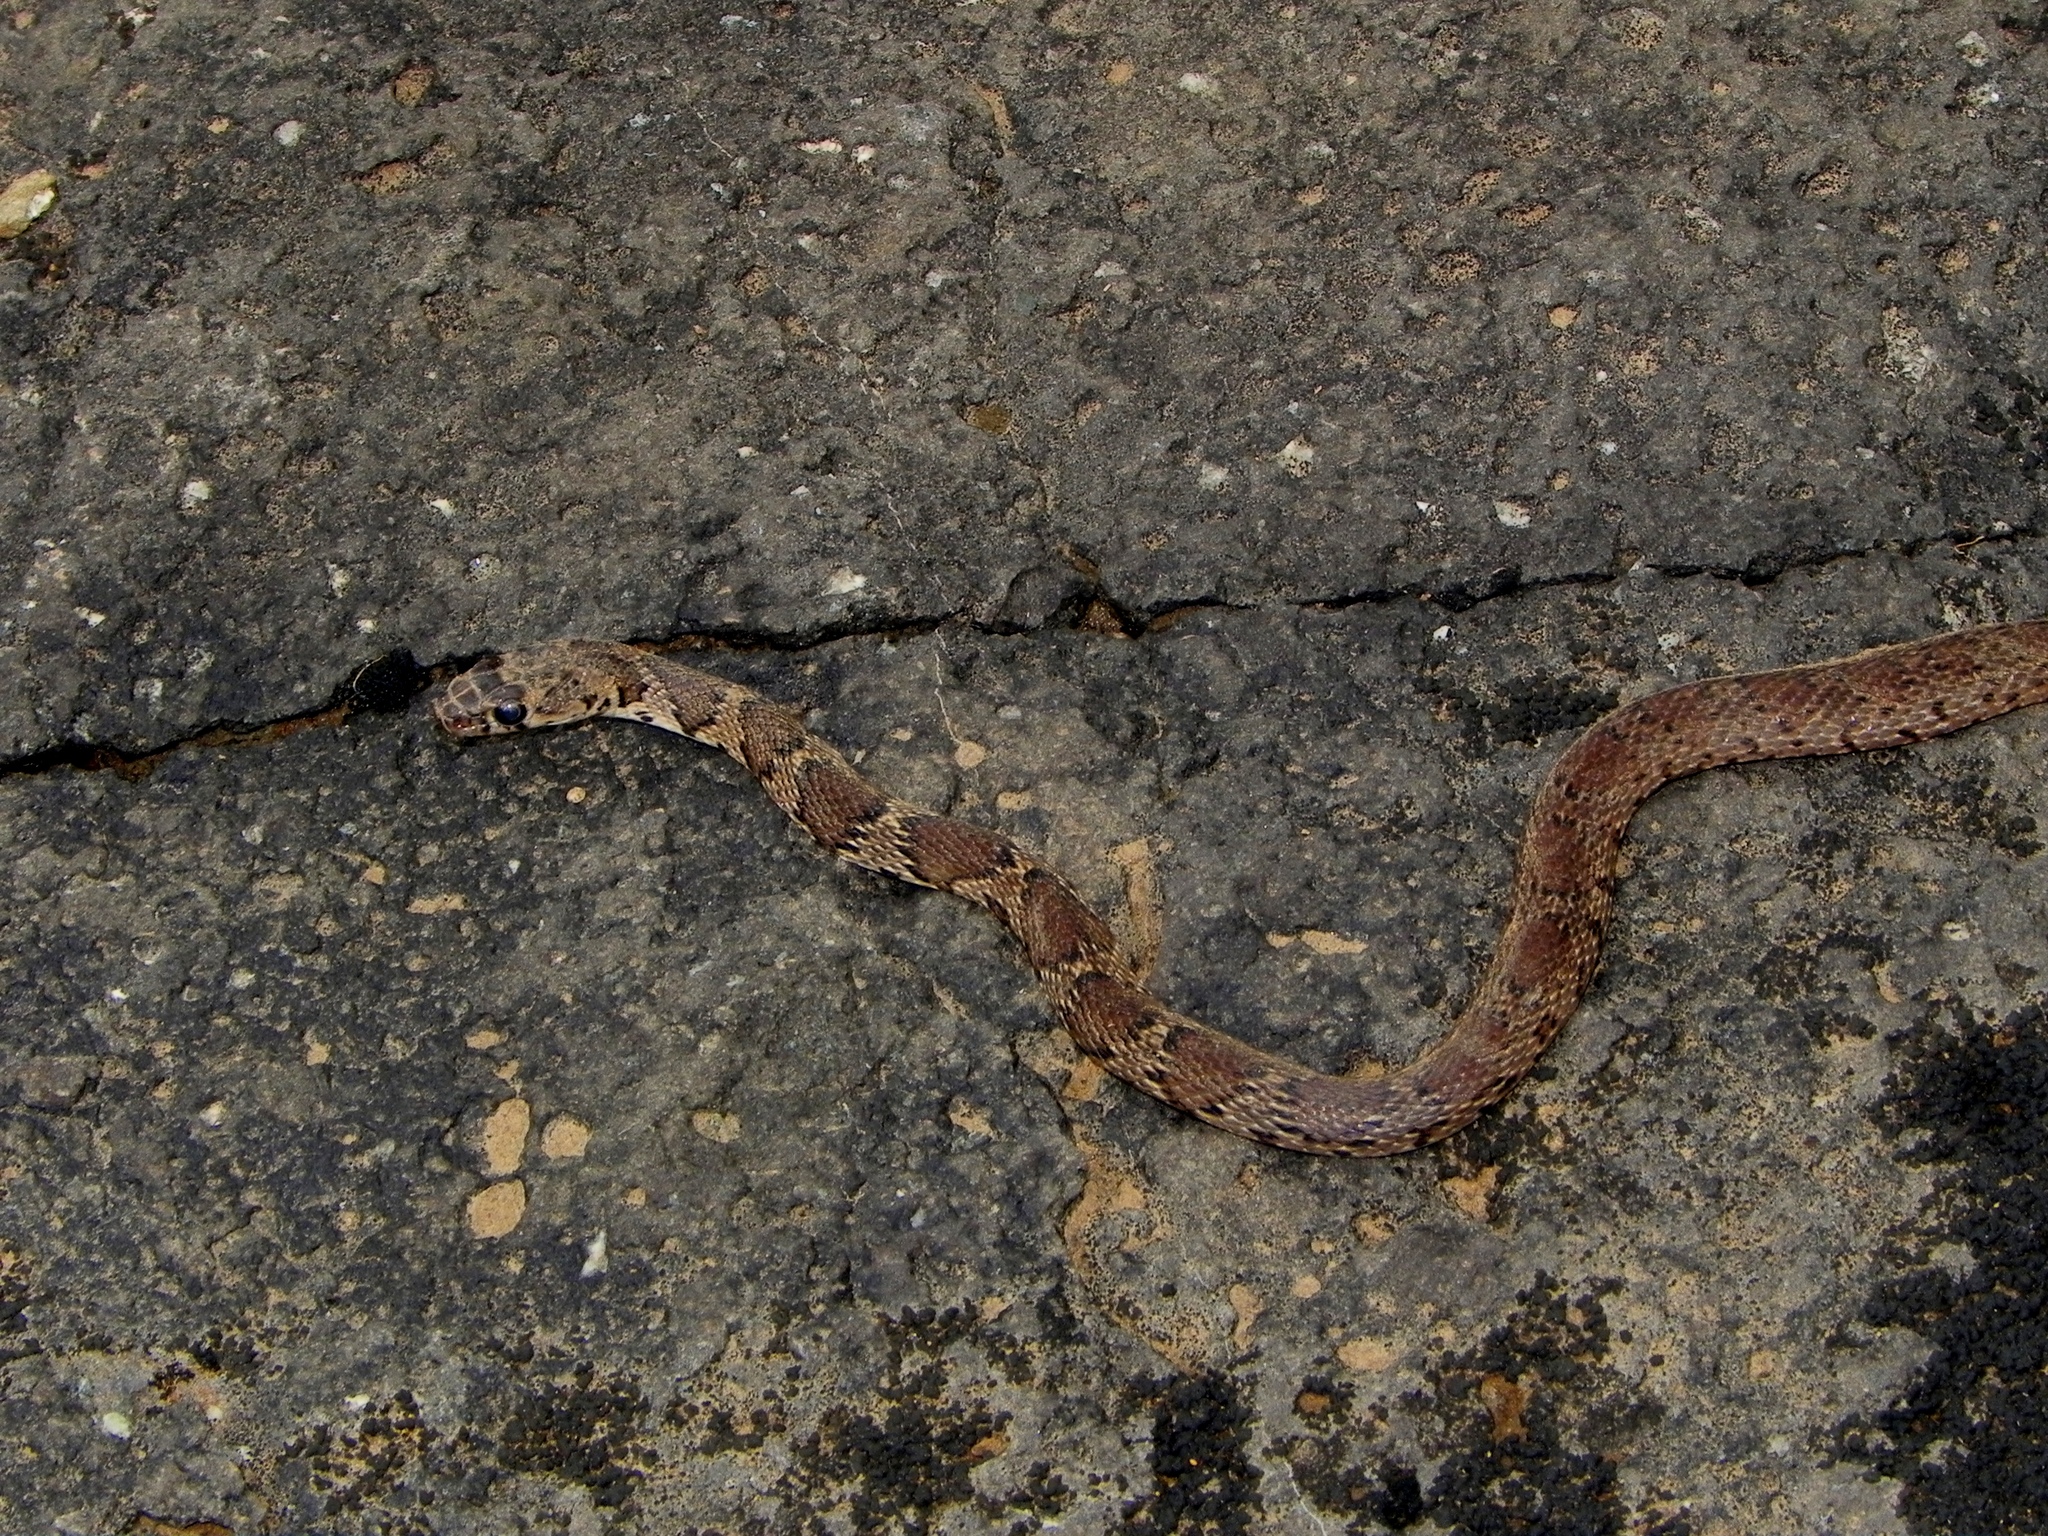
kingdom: Animalia
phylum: Chordata
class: Squamata
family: Colubridae
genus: Platyceps
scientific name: Platyceps gracilis
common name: Graceful racer
